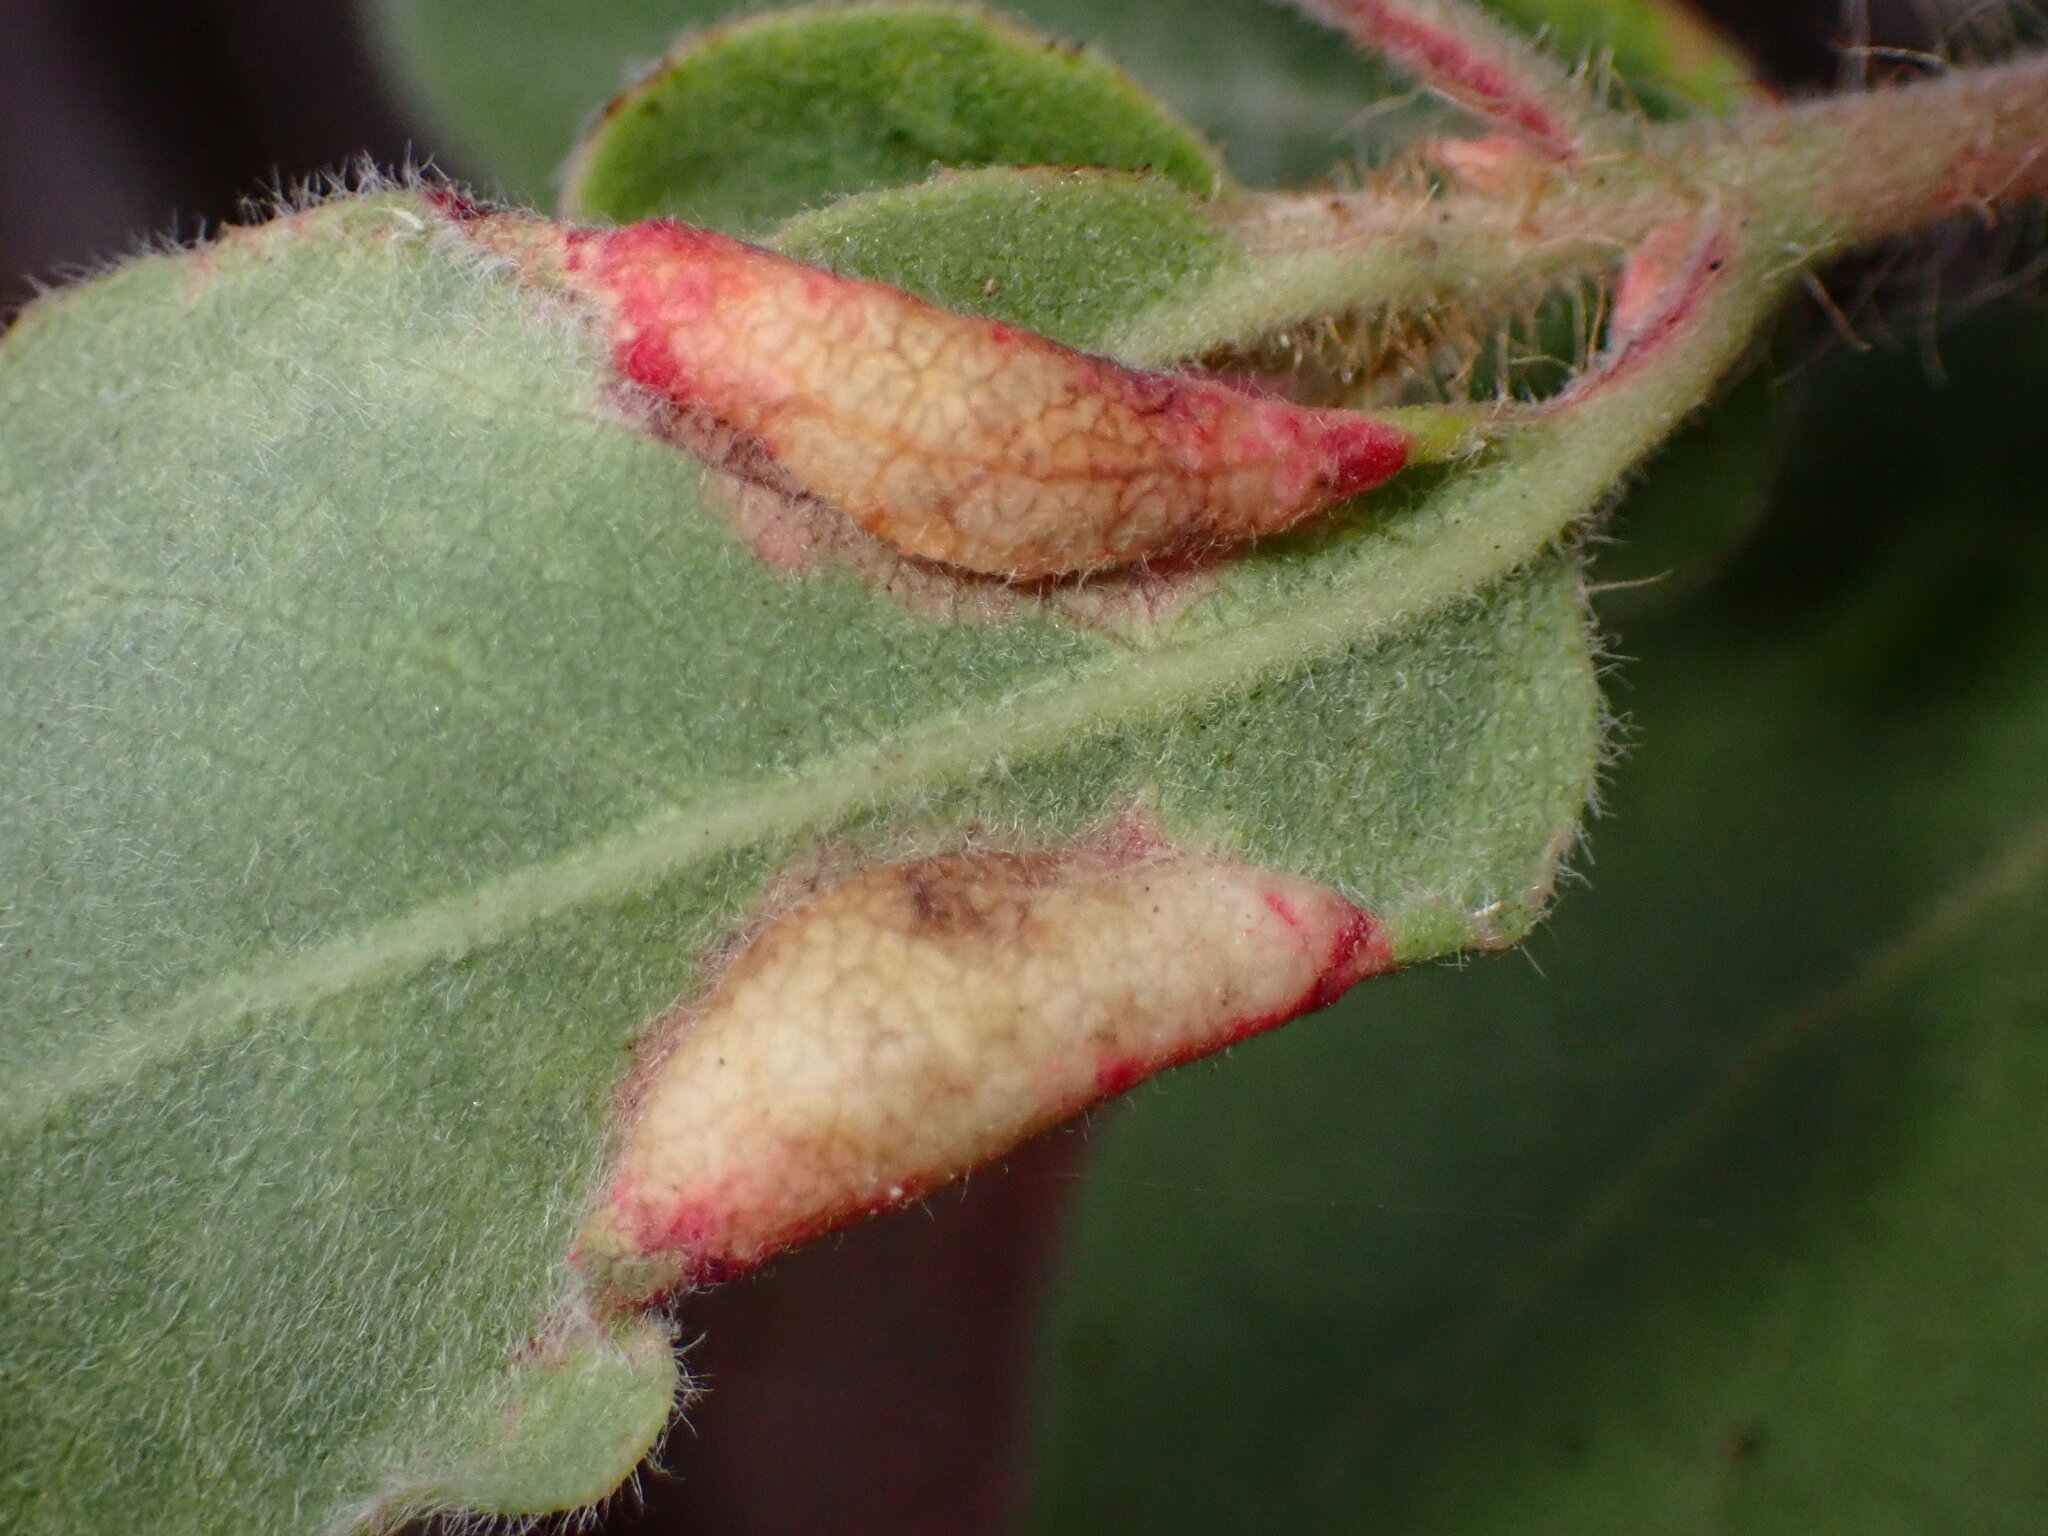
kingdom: Animalia
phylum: Arthropoda
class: Insecta
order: Hemiptera
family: Aphididae
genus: Tamalia
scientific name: Tamalia coweni
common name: Manzanita leafgall aphid
